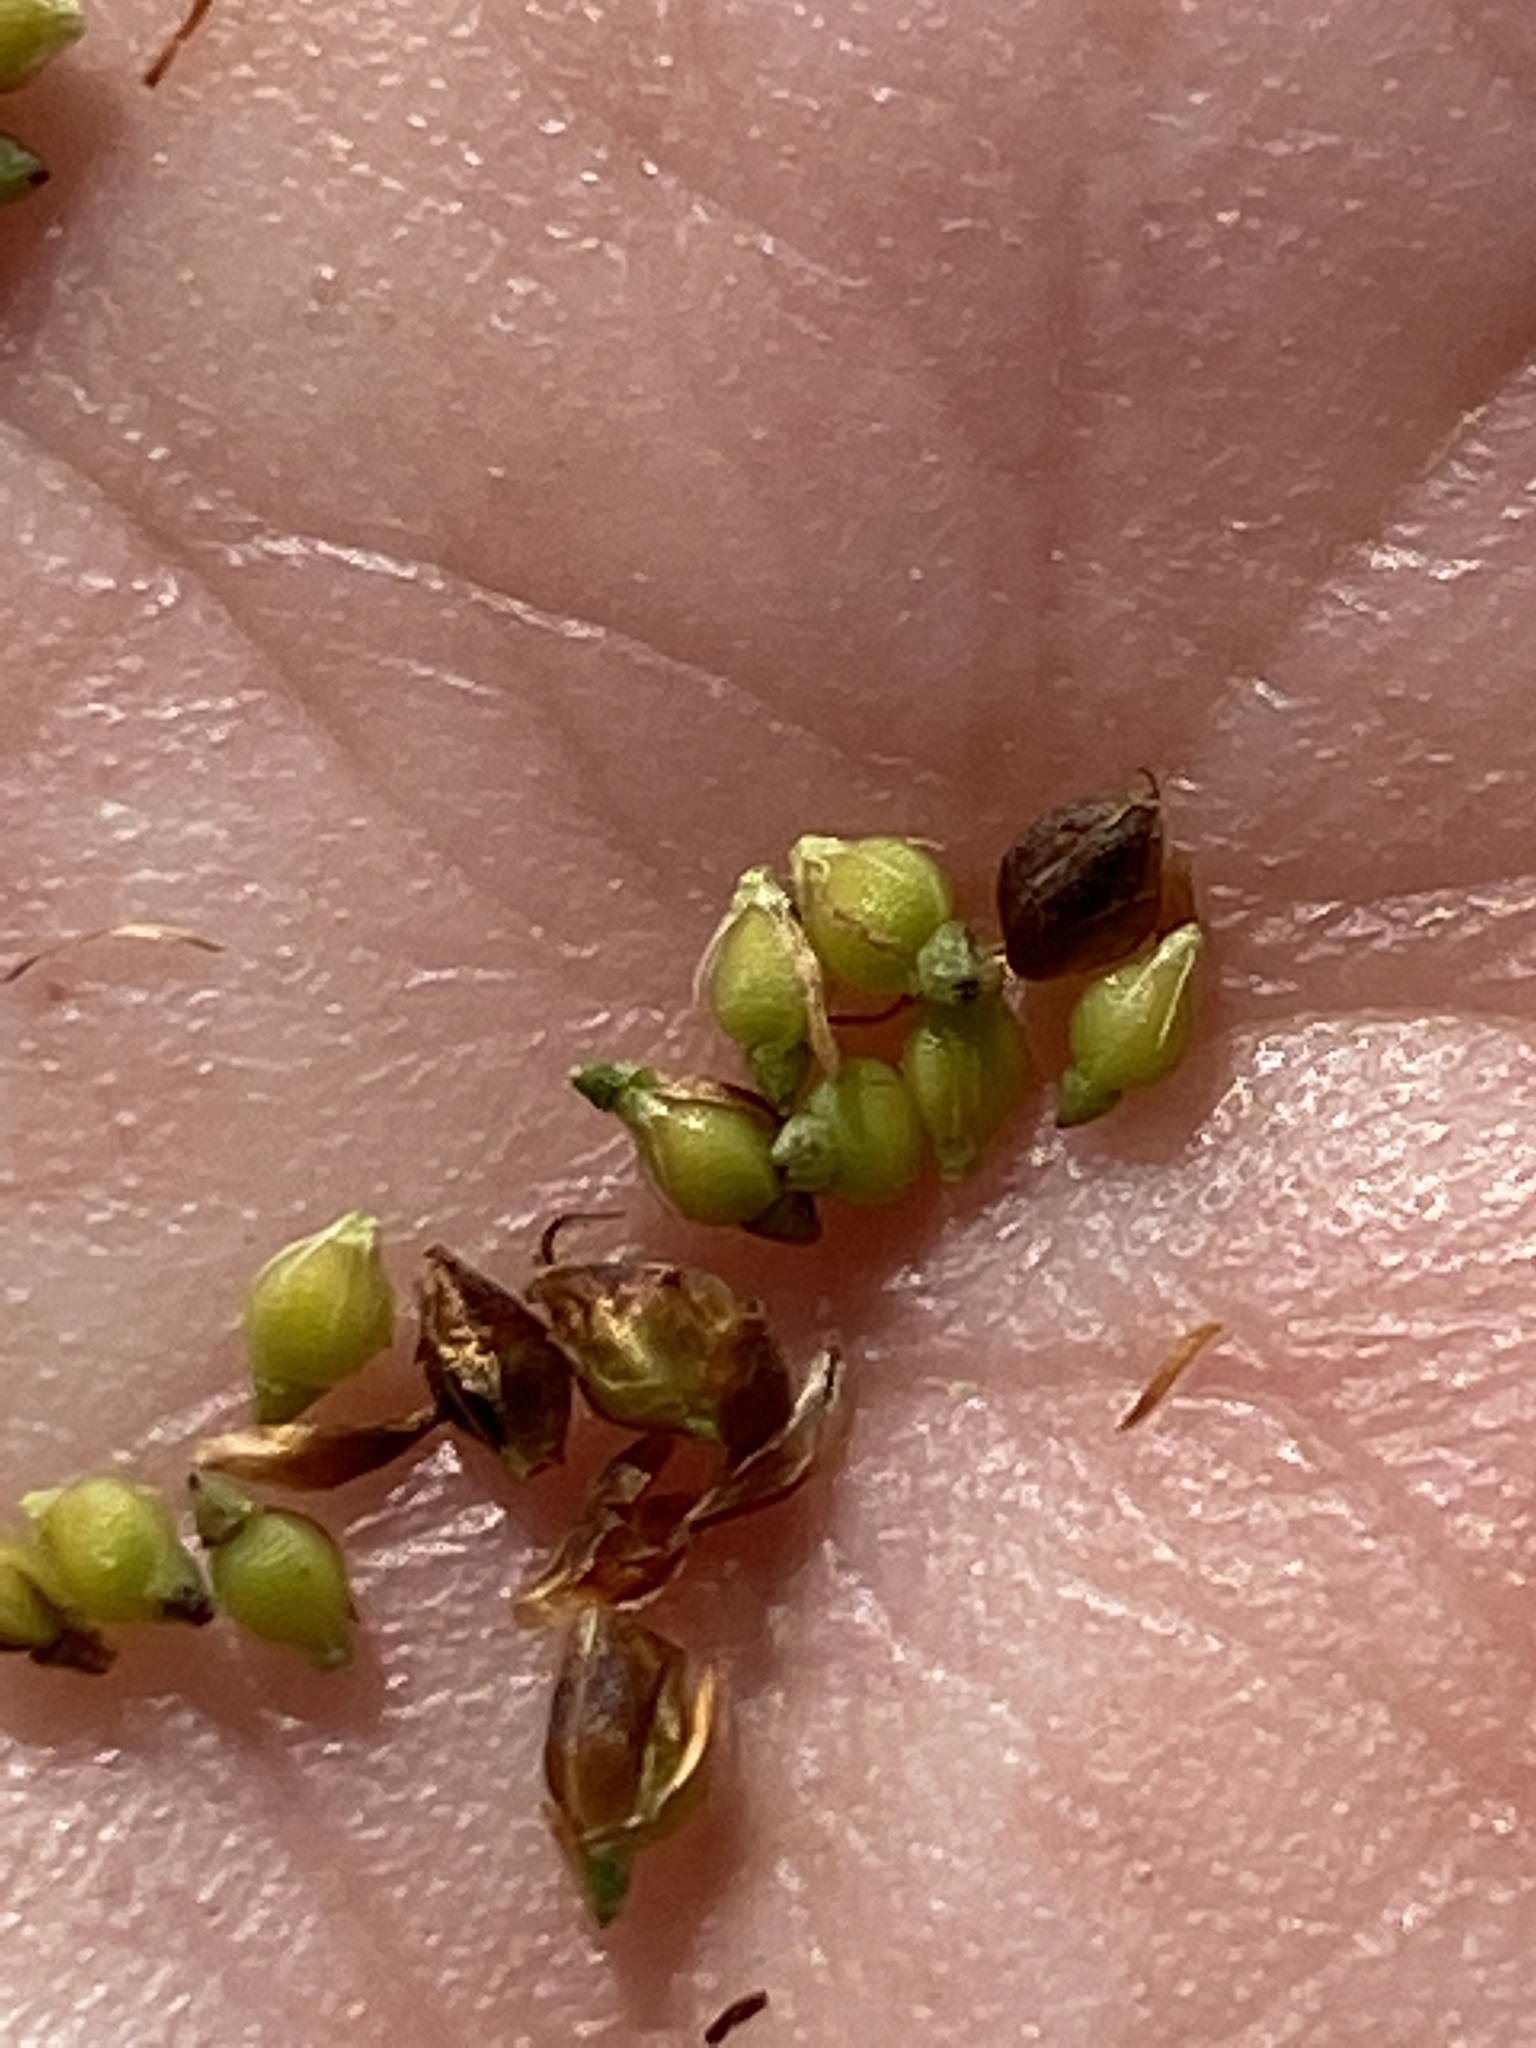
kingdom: Plantae
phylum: Tracheophyta
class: Liliopsida
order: Poales
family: Cyperaceae
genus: Rhynchospora
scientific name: Rhynchospora globularis
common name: Globe beaksedge
